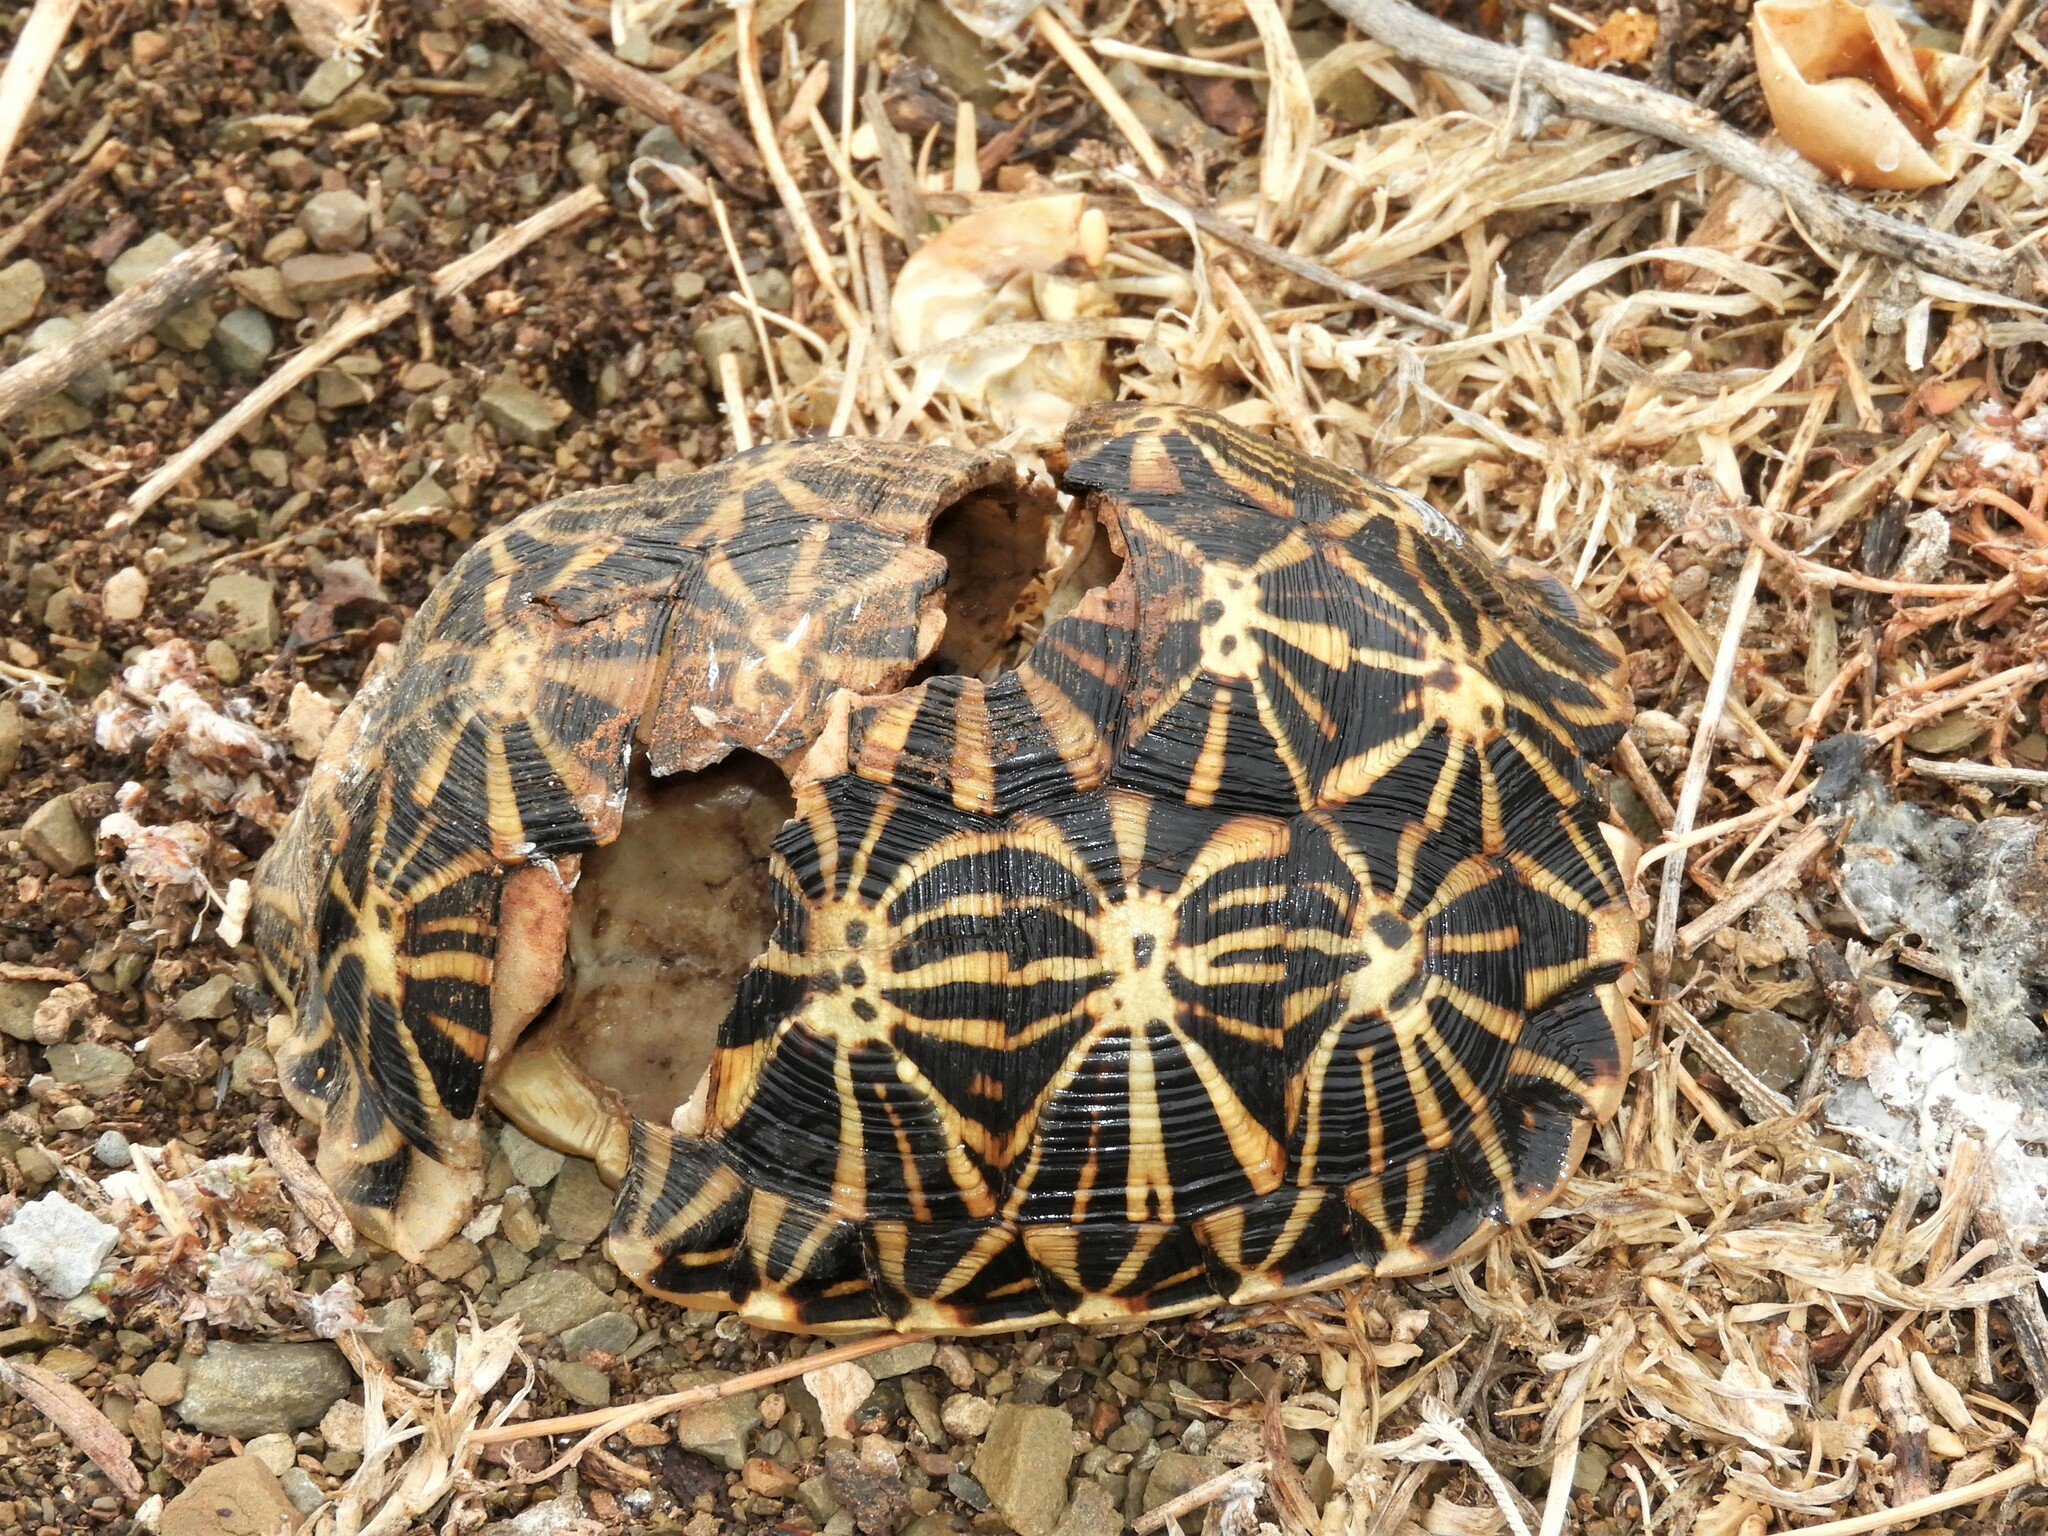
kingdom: Animalia
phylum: Chordata
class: Testudines
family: Testudinidae
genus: Psammobates
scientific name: Psammobates tentorius
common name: Tent tortoise
